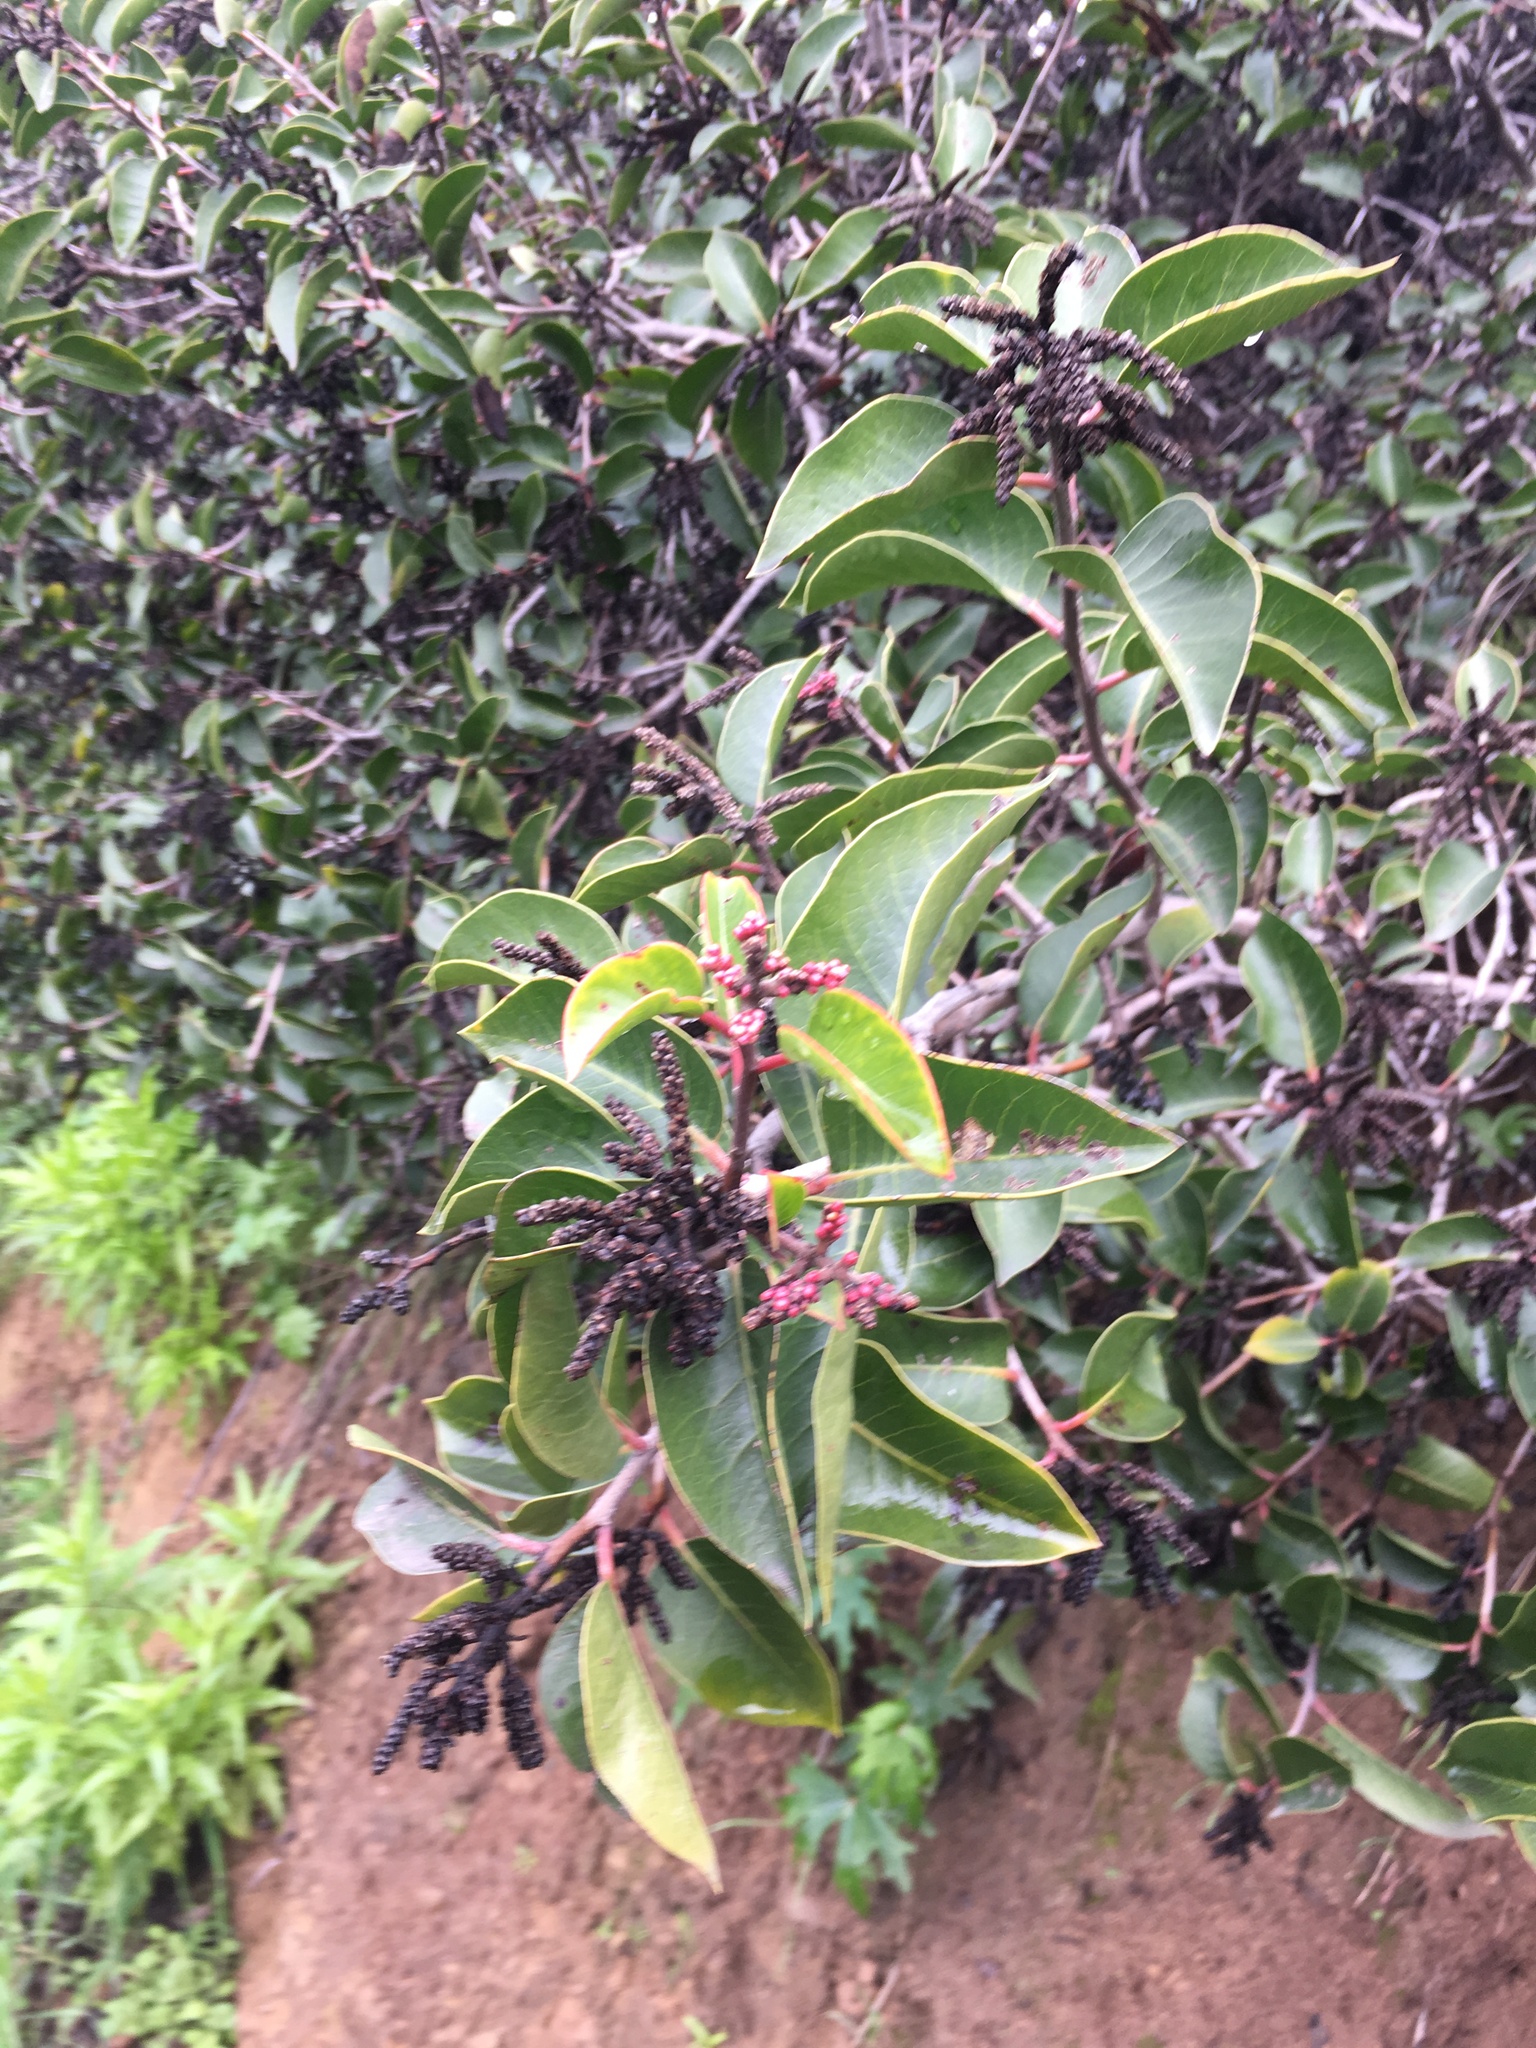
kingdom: Plantae
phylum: Tracheophyta
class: Magnoliopsida
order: Sapindales
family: Anacardiaceae
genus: Rhus
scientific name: Rhus ovata
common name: Sugar sumac
